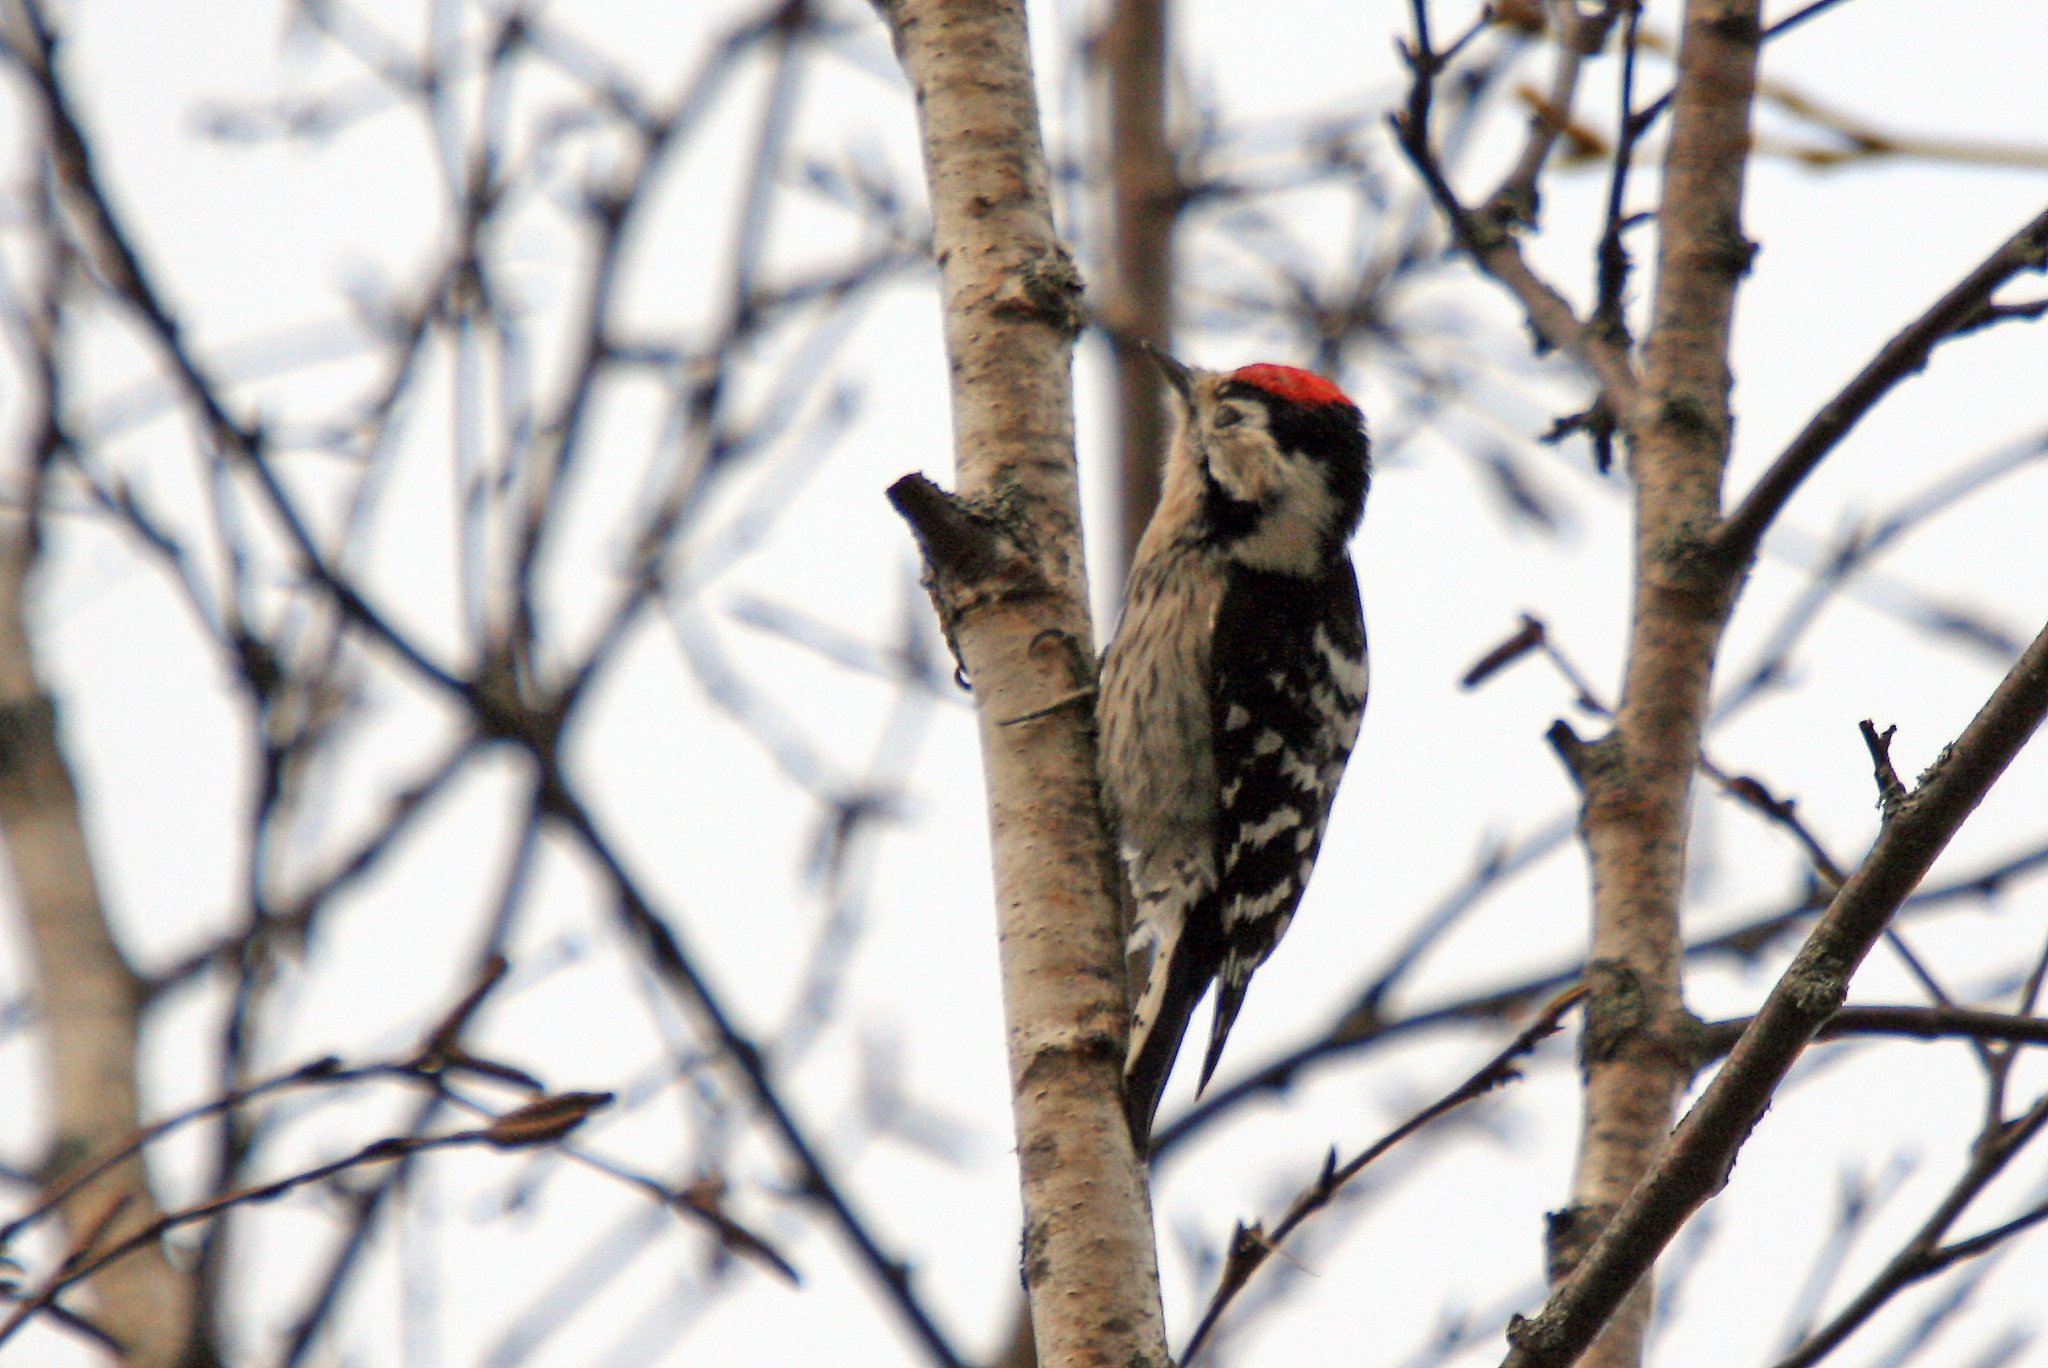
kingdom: Animalia
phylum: Chordata
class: Aves
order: Piciformes
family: Picidae
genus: Dryobates
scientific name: Dryobates minor
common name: Lesser spotted woodpecker
